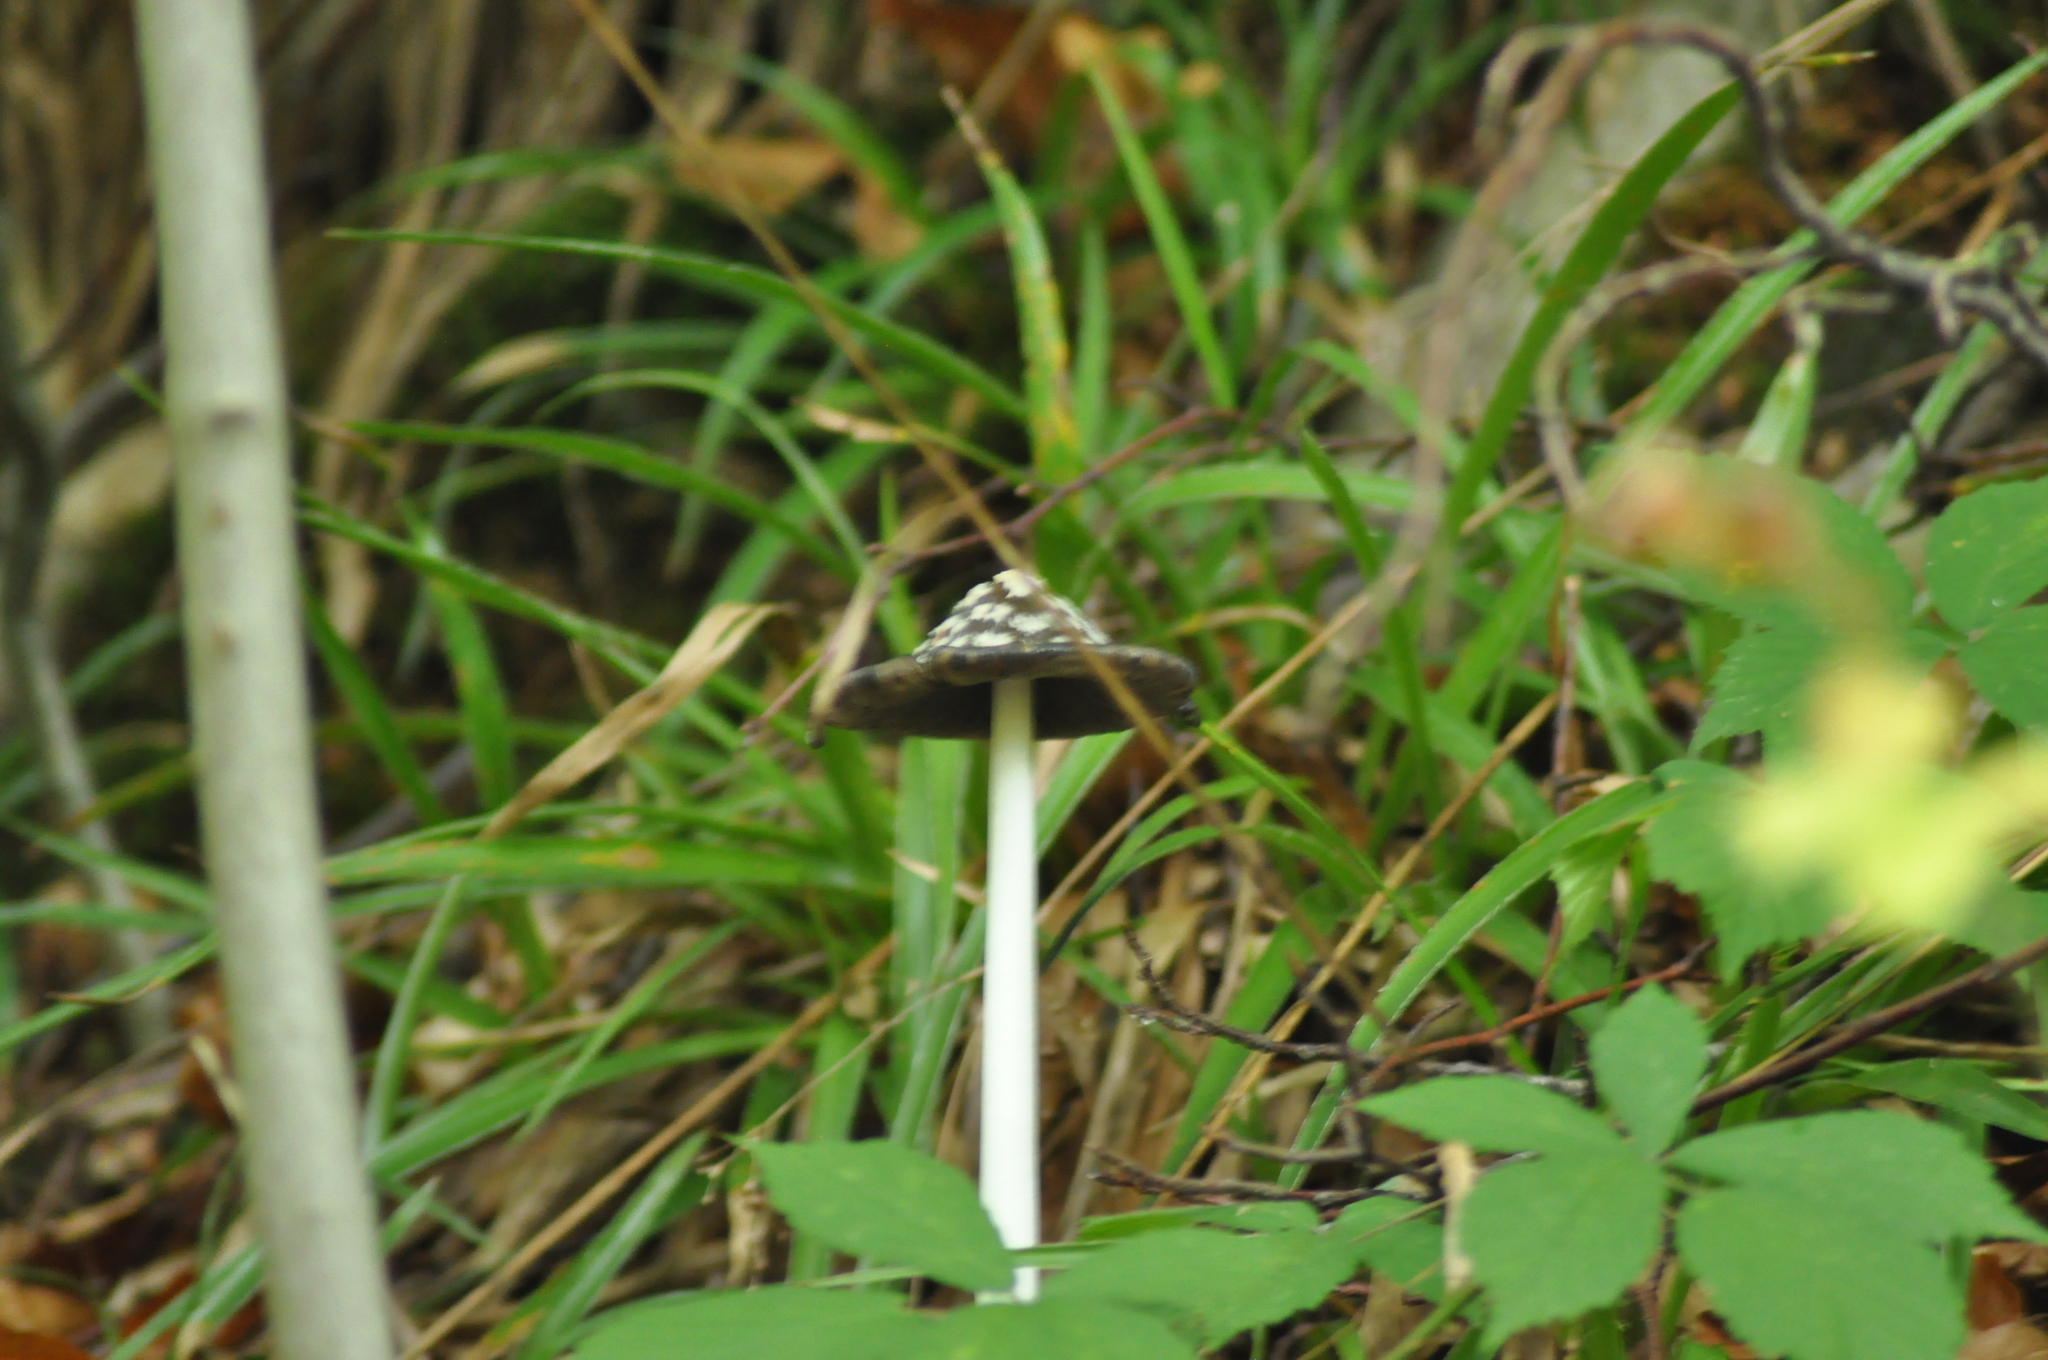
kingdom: Fungi
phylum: Basidiomycota
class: Agaricomycetes
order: Agaricales
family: Psathyrellaceae
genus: Coprinopsis
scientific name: Coprinopsis picacea
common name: Magpie inkcap
